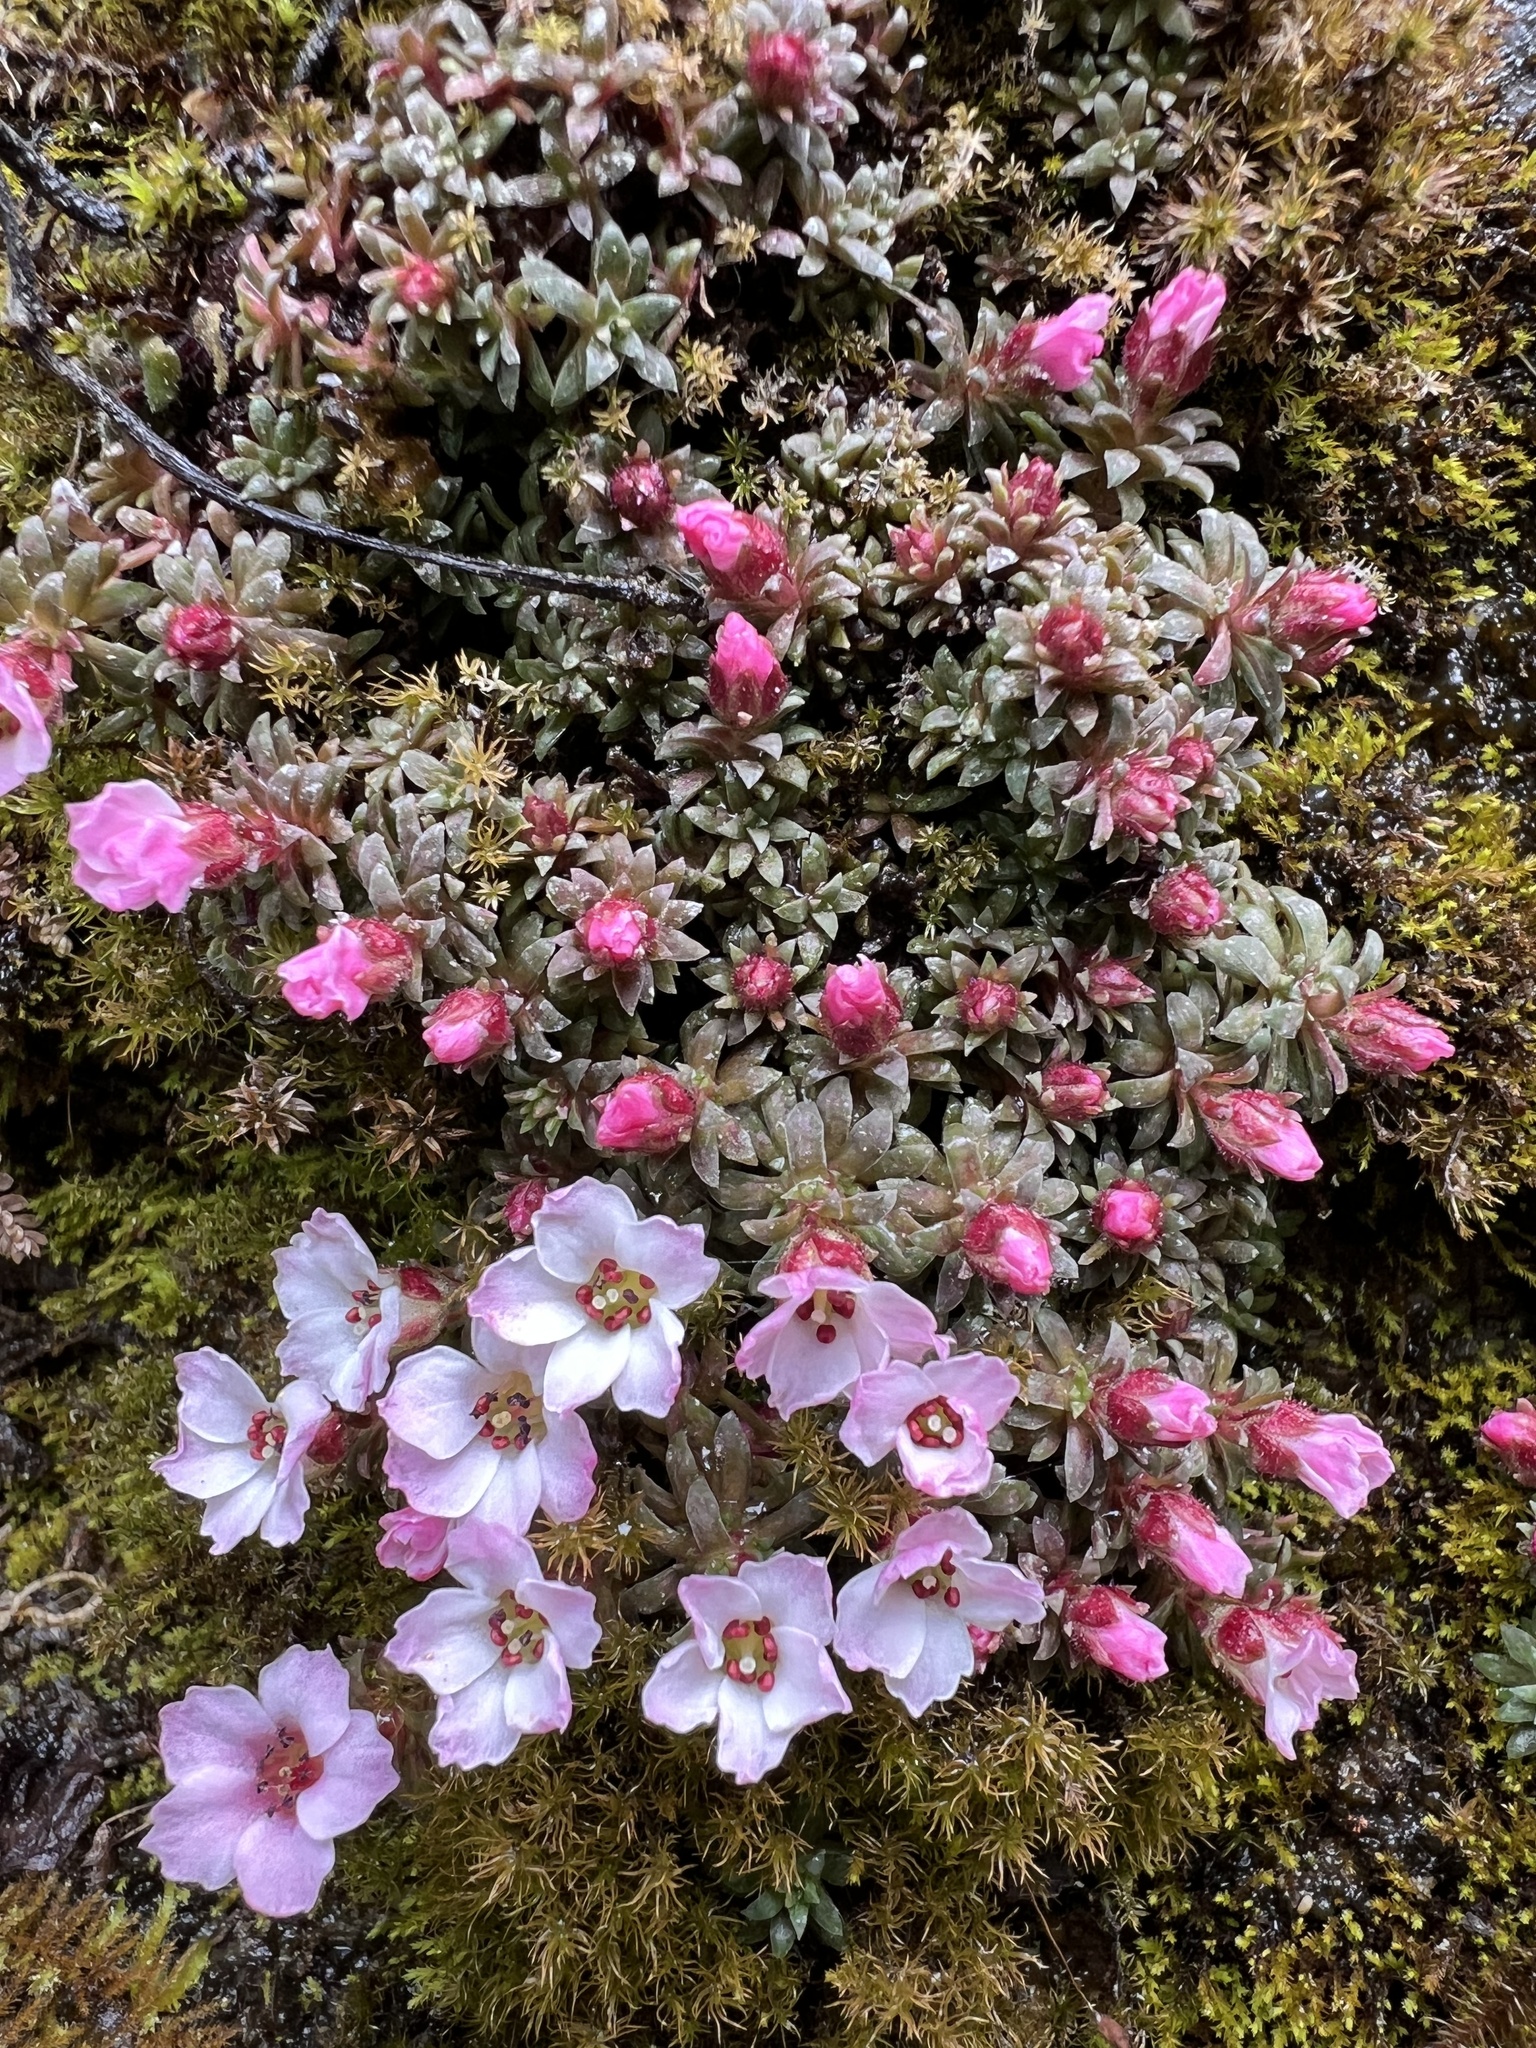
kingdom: Plantae
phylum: Tracheophyta
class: Magnoliopsida
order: Saxifragales
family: Saxifragaceae
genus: Saxifraga
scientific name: Saxifraga poluniniana
